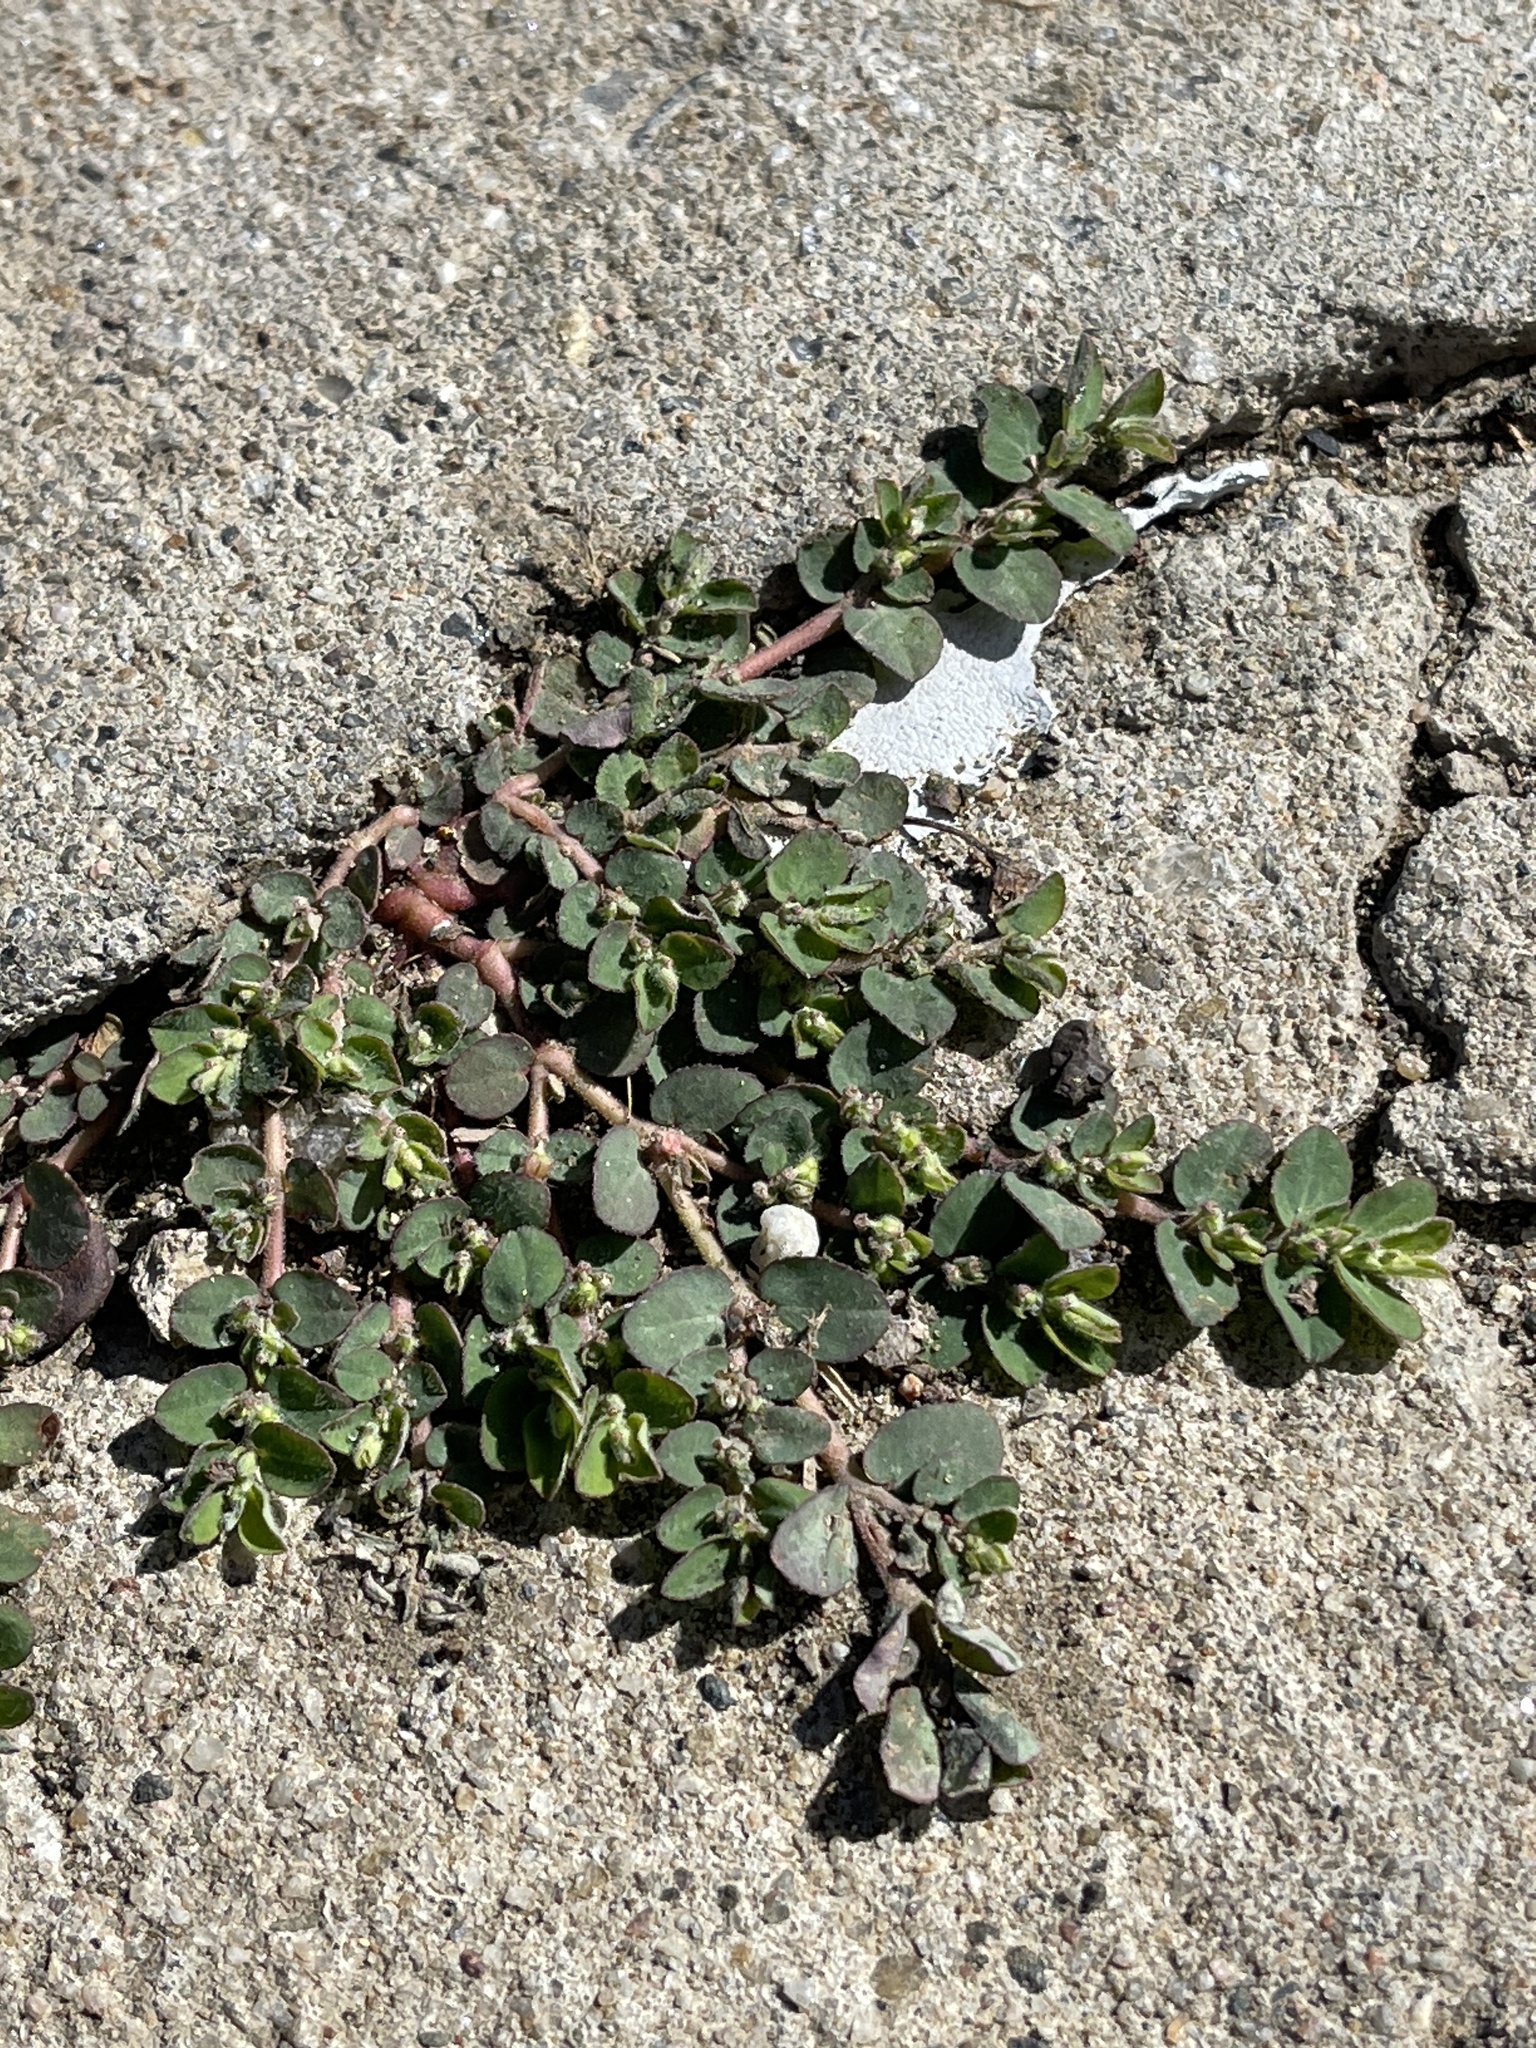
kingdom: Plantae
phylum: Tracheophyta
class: Magnoliopsida
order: Malpighiales
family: Euphorbiaceae
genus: Euphorbia
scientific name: Euphorbia prostrata
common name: Prostrate sandmat
